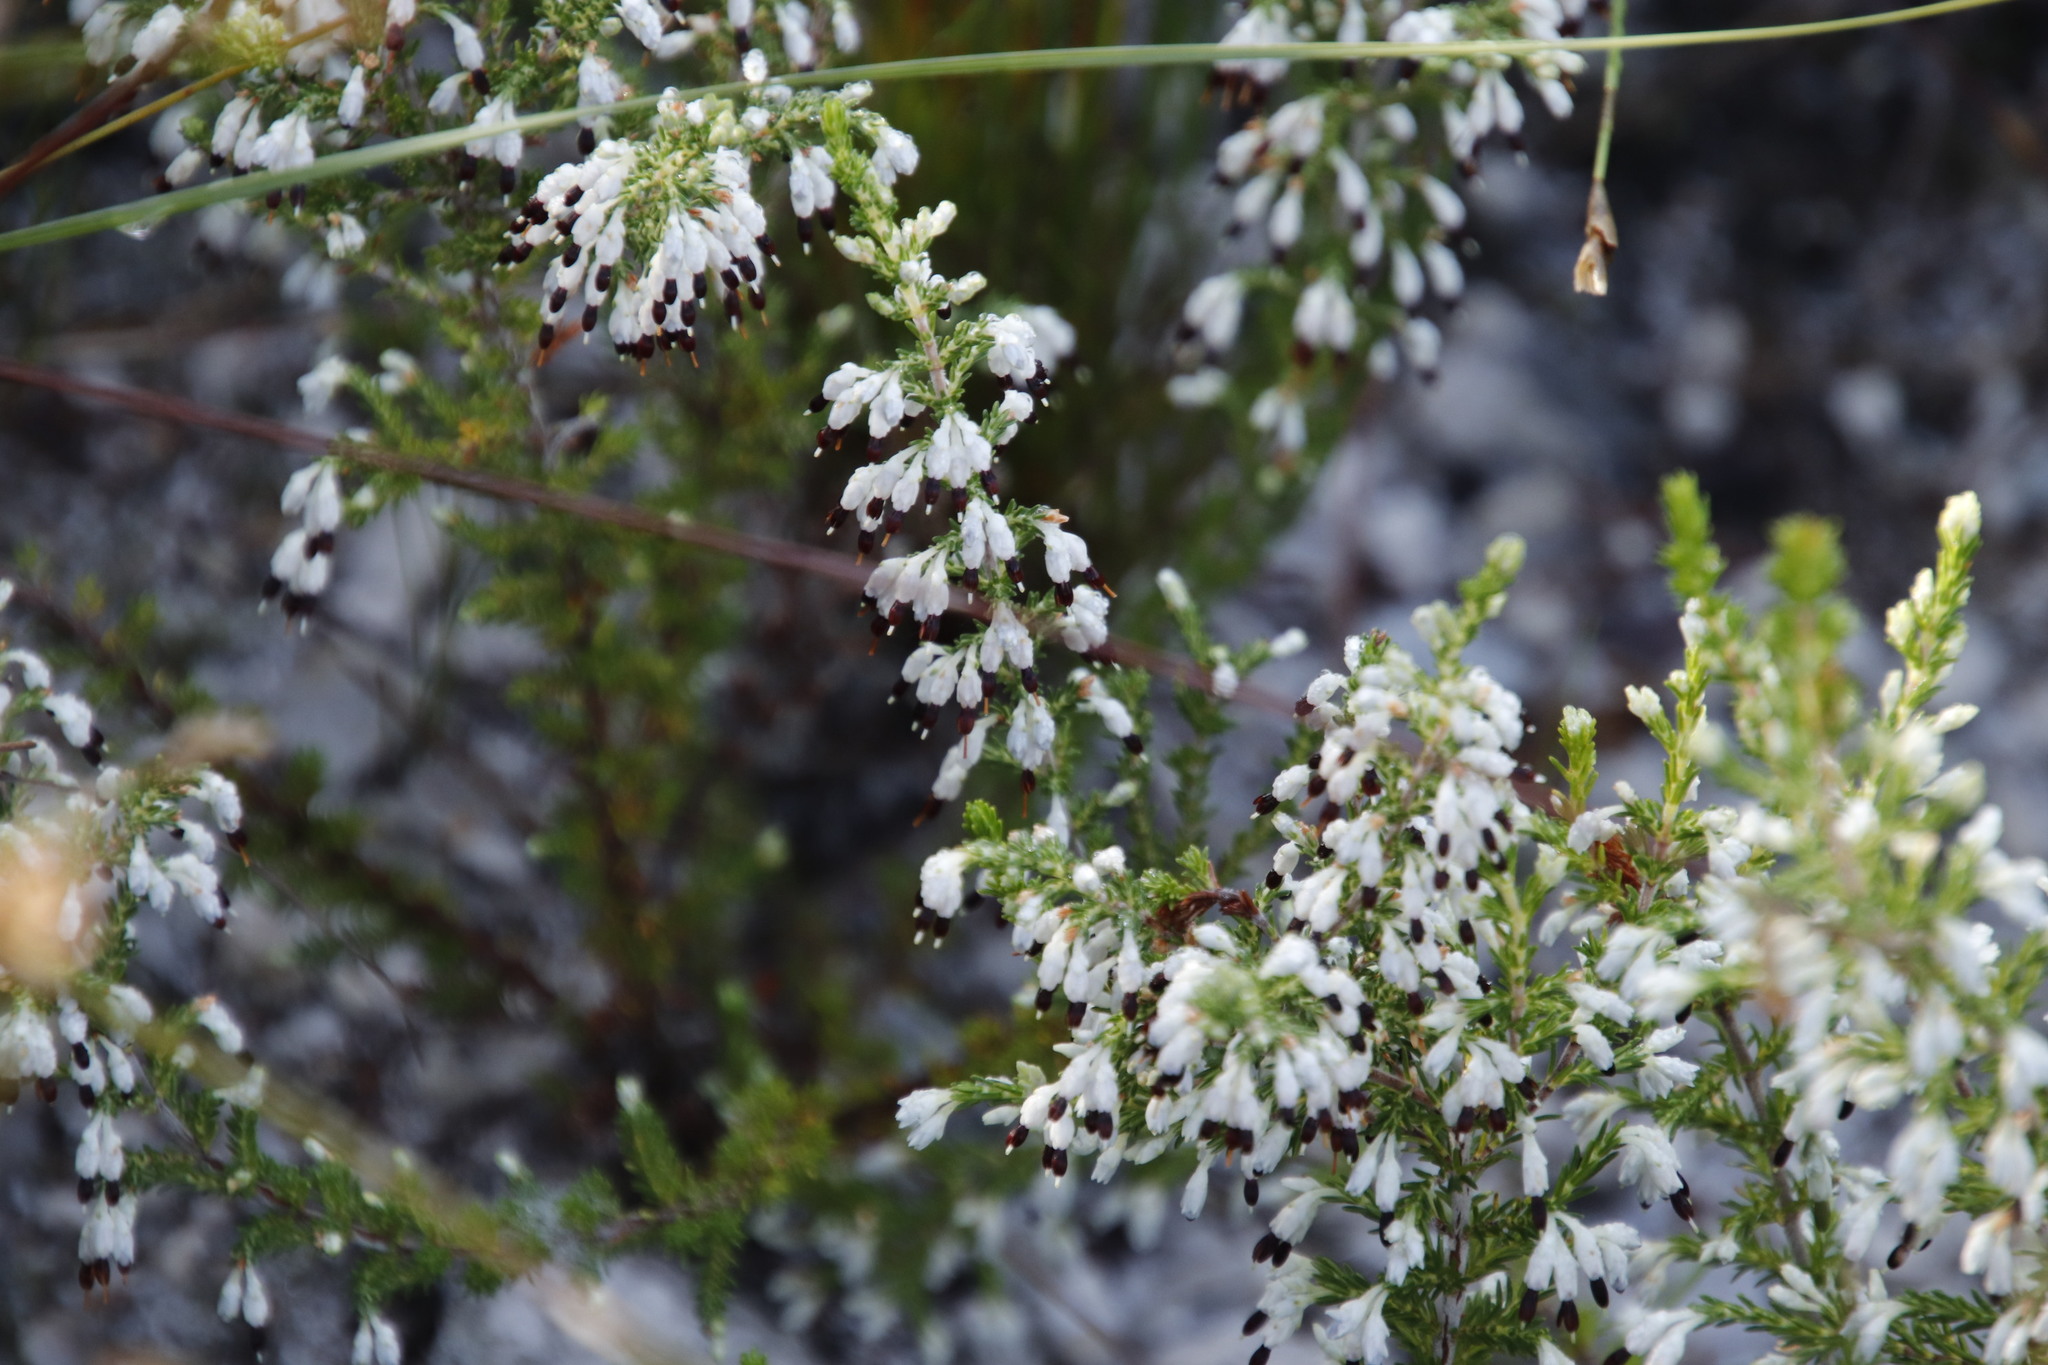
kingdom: Plantae
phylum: Tracheophyta
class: Magnoliopsida
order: Ericales
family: Ericaceae
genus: Erica
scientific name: Erica imbricata
